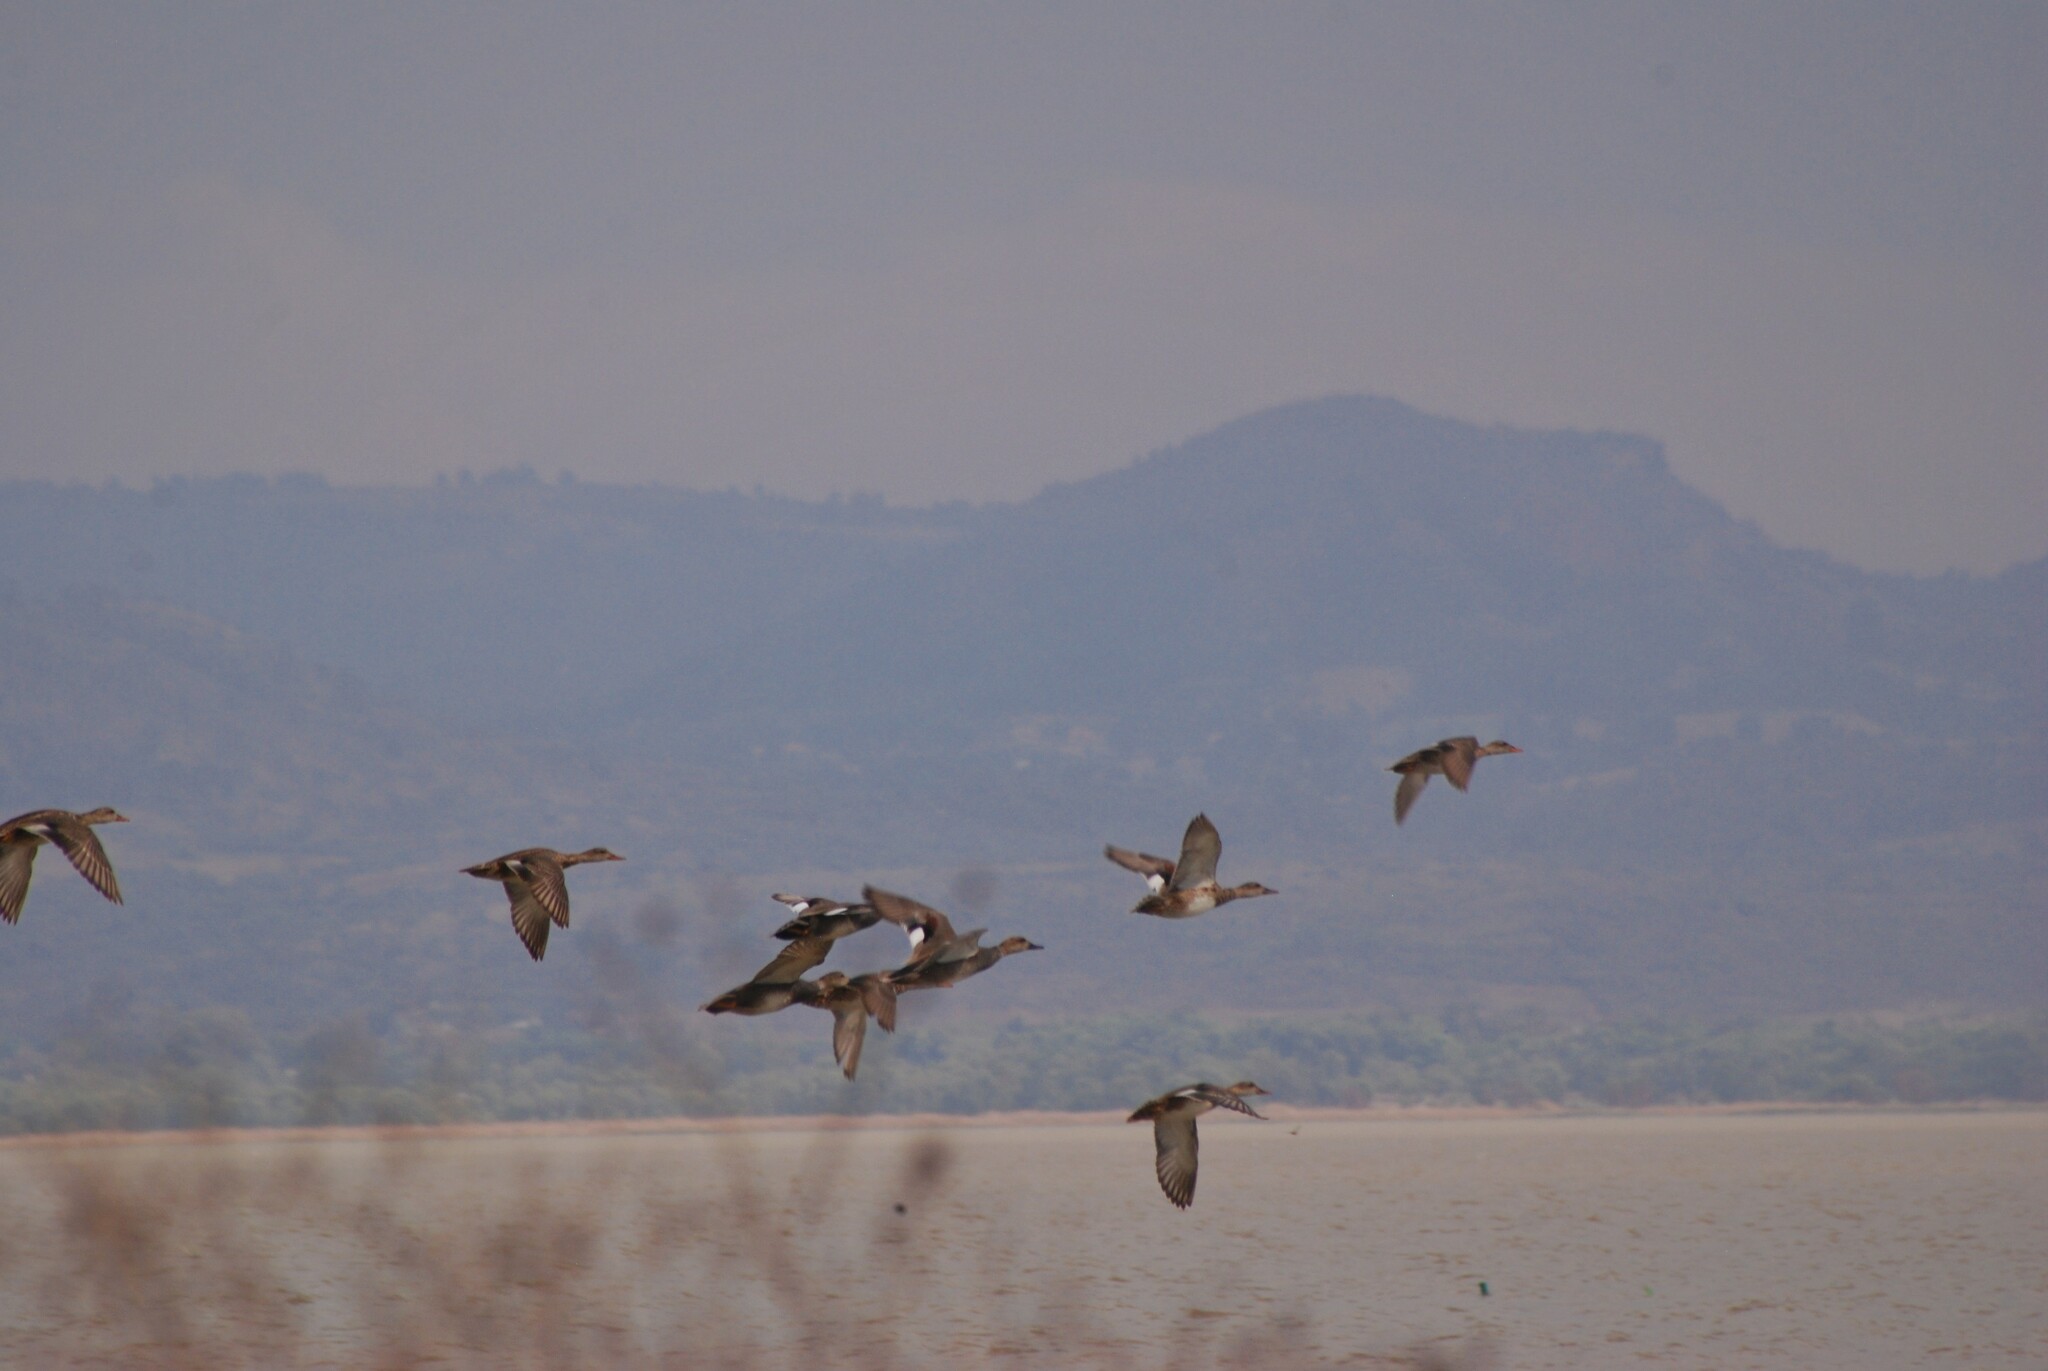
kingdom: Animalia
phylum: Chordata
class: Aves
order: Anseriformes
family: Anatidae
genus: Mareca
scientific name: Mareca strepera
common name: Gadwall
